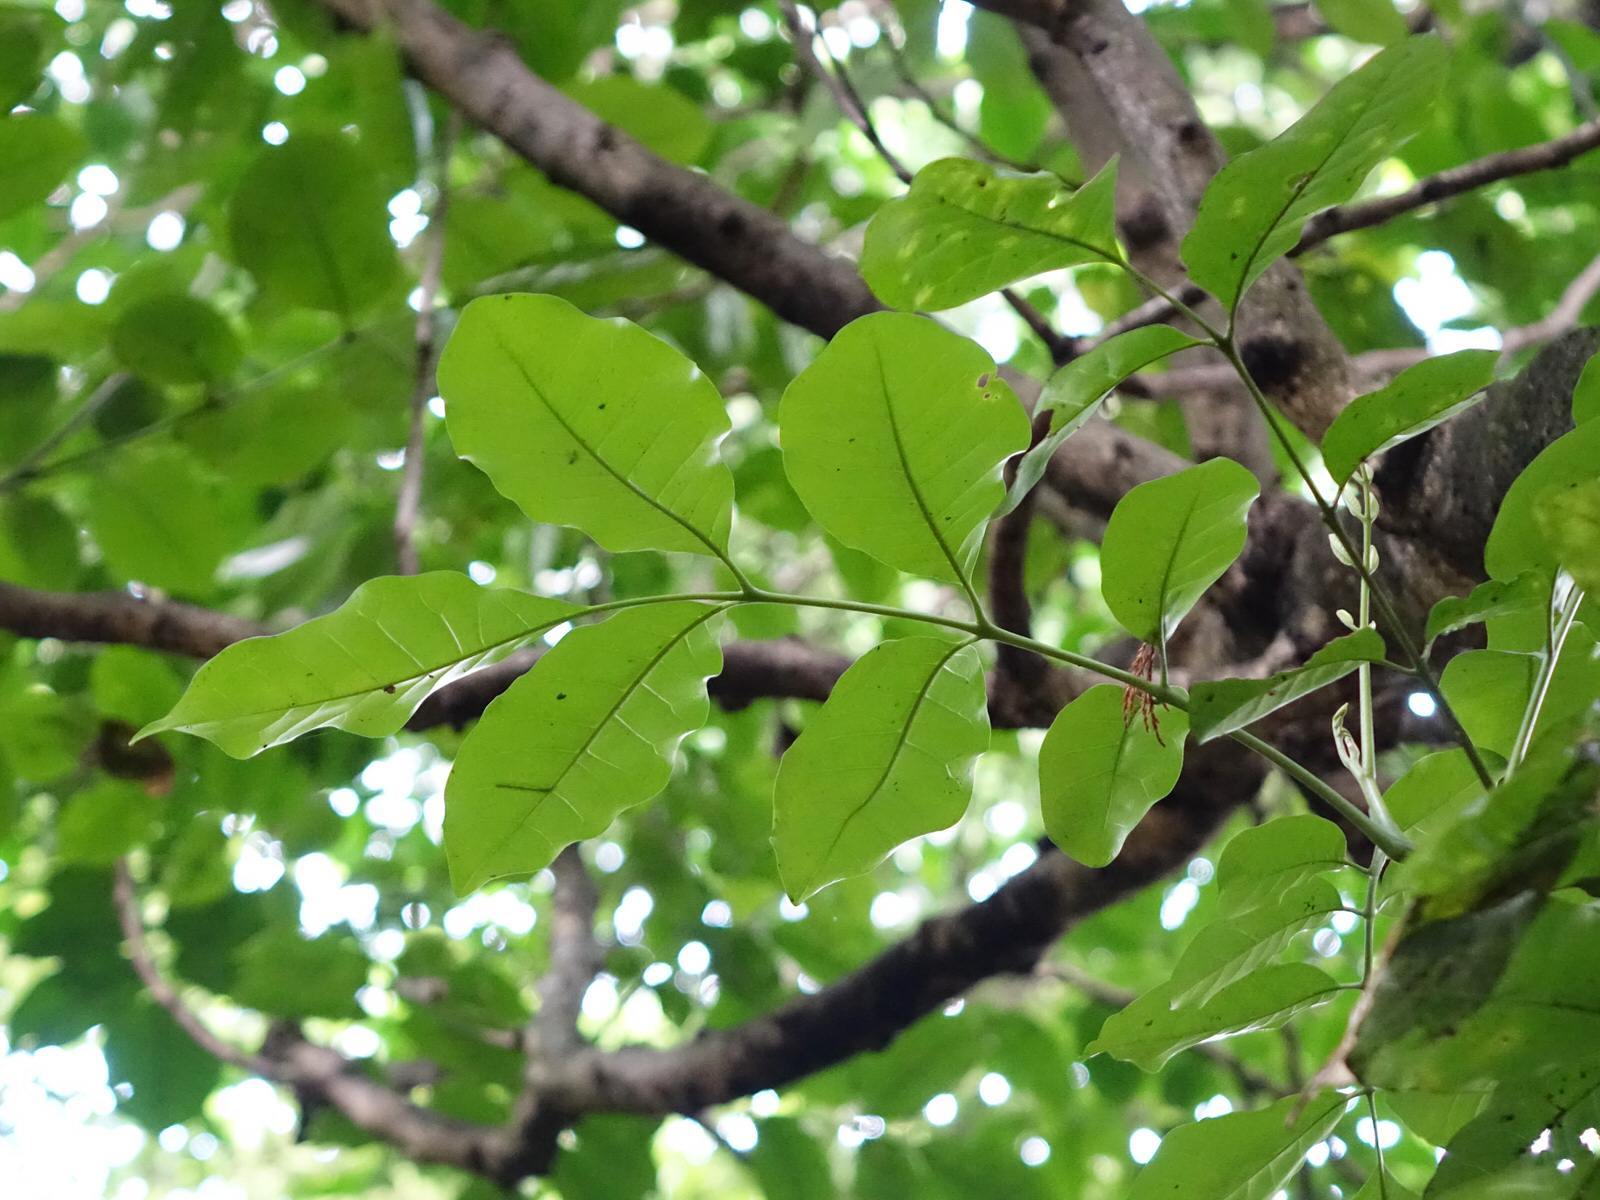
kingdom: Plantae
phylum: Tracheophyta
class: Magnoliopsida
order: Sapindales
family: Meliaceae
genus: Didymocheton
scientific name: Didymocheton spectabilis
